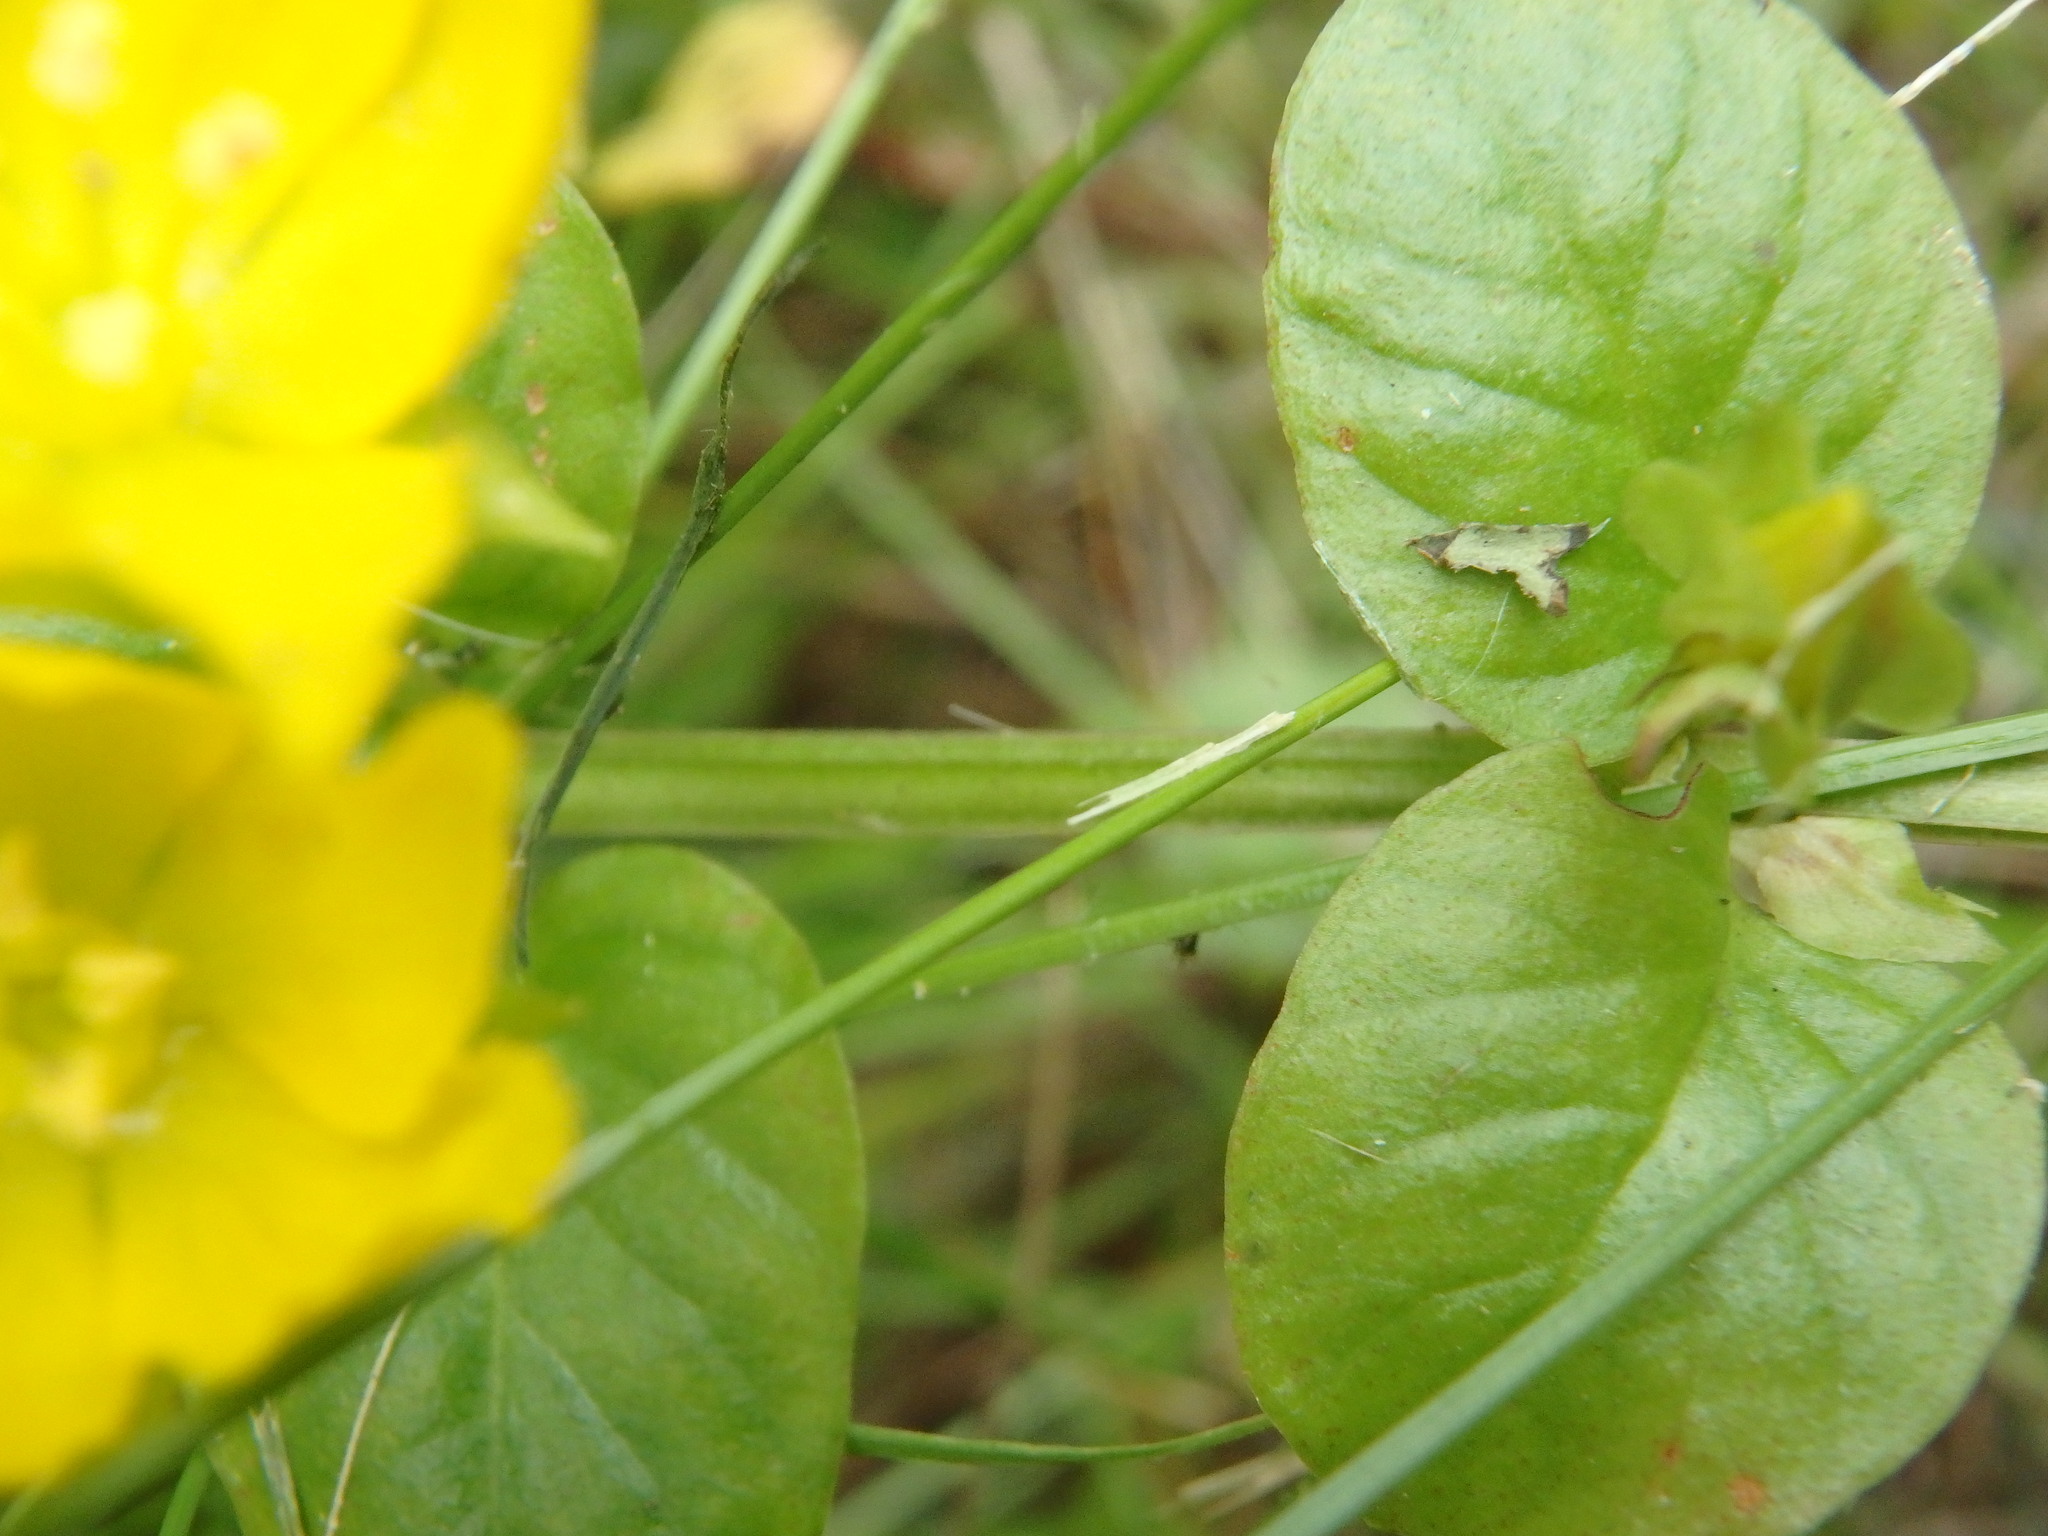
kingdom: Plantae
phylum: Tracheophyta
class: Magnoliopsida
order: Ericales
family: Primulaceae
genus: Lysimachia
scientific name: Lysimachia nummularia
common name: Moneywort
